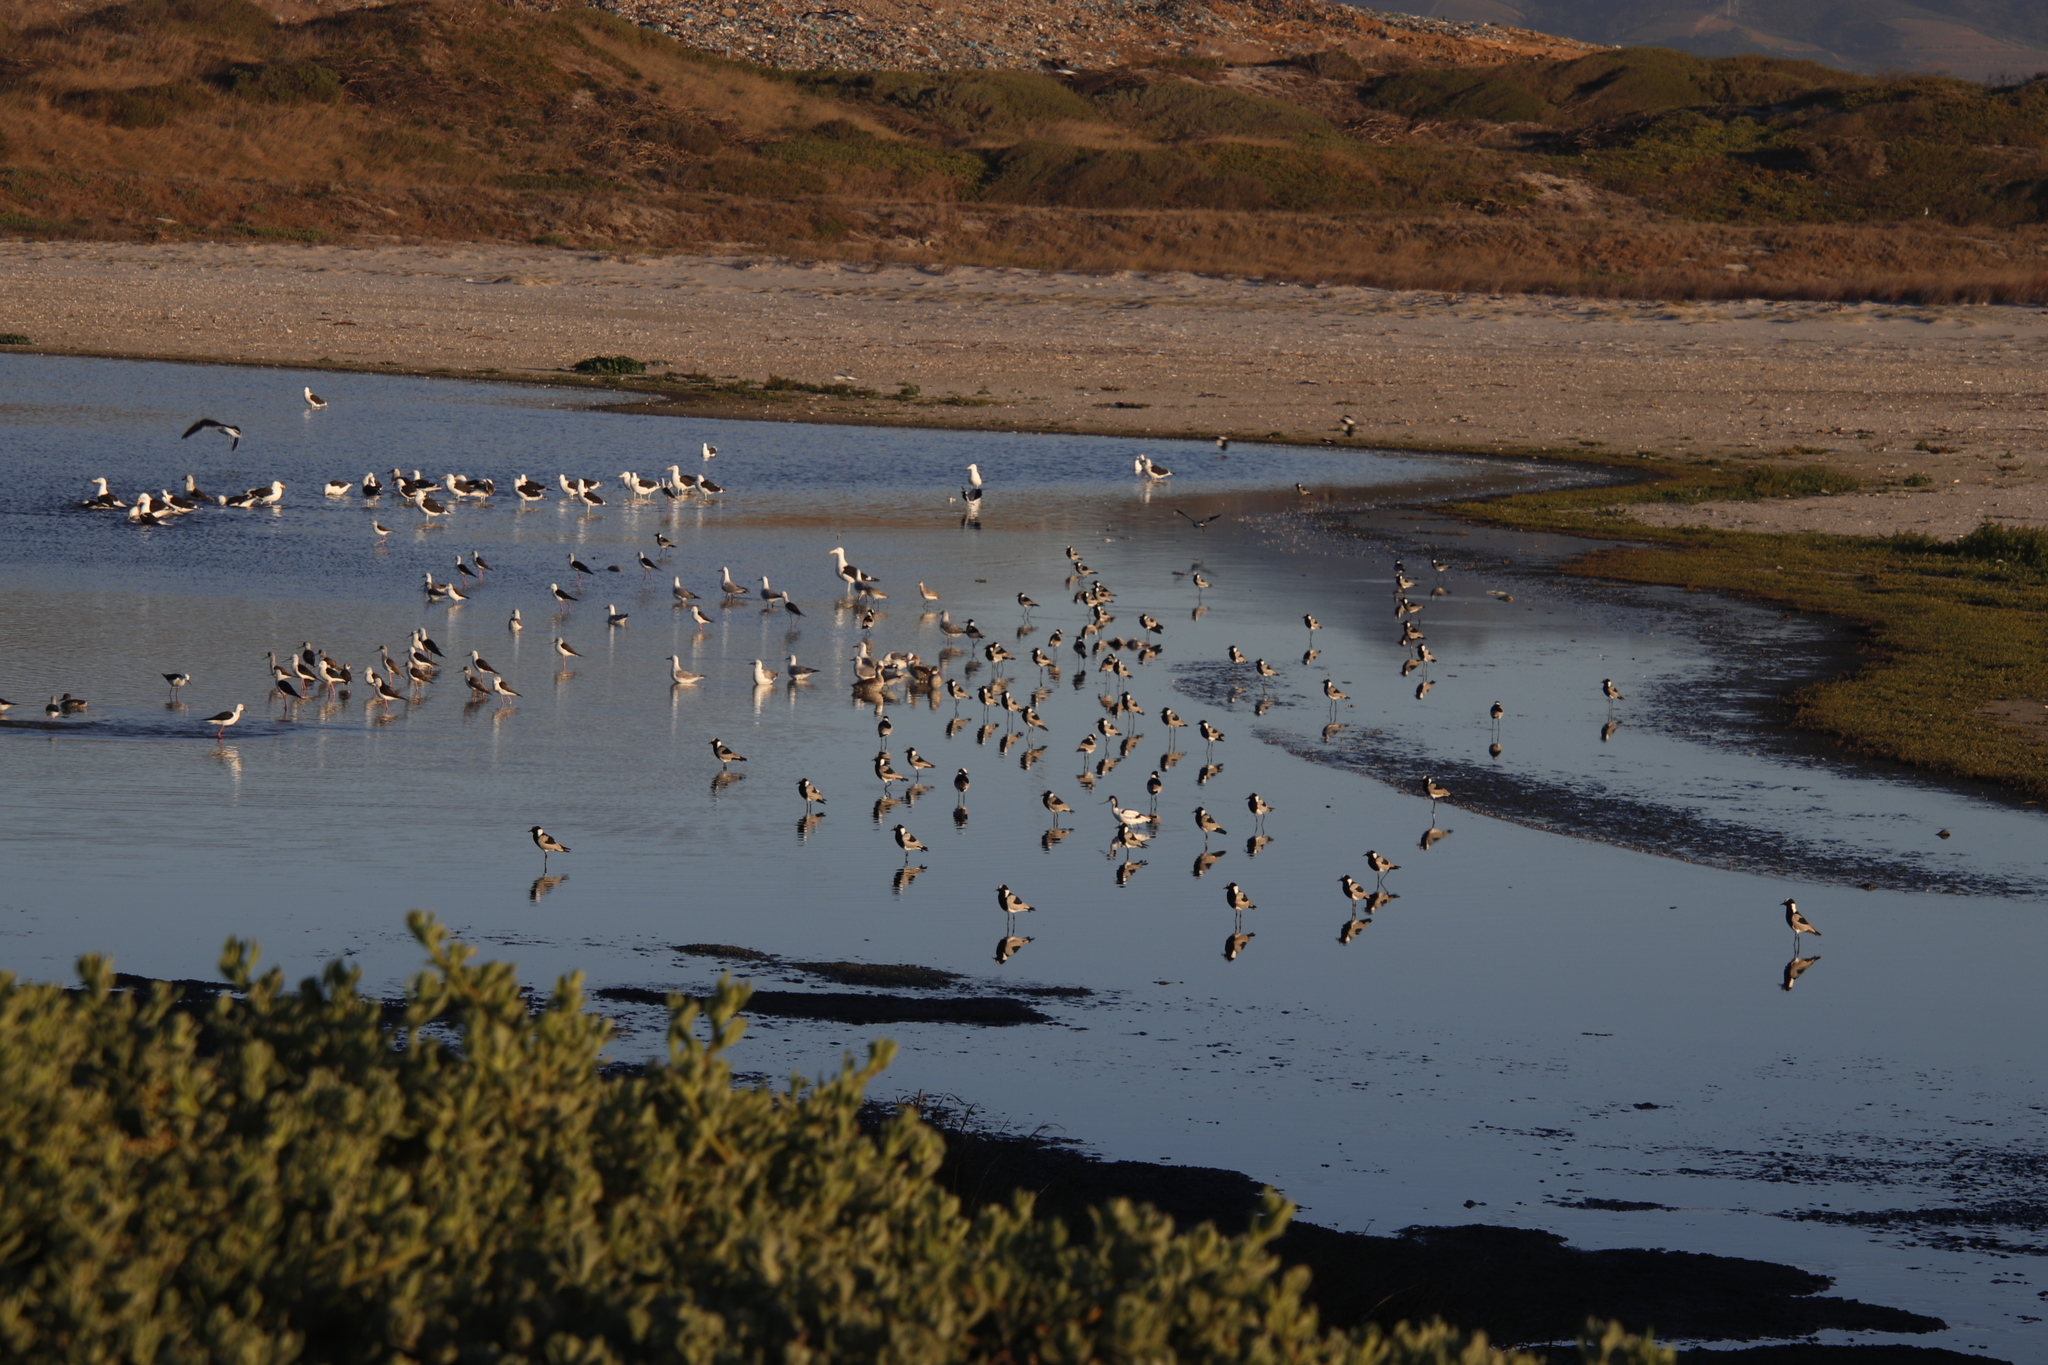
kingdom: Animalia
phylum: Chordata
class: Aves
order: Charadriiformes
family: Charadriidae
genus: Vanellus
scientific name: Vanellus armatus
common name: Blacksmith lapwing
